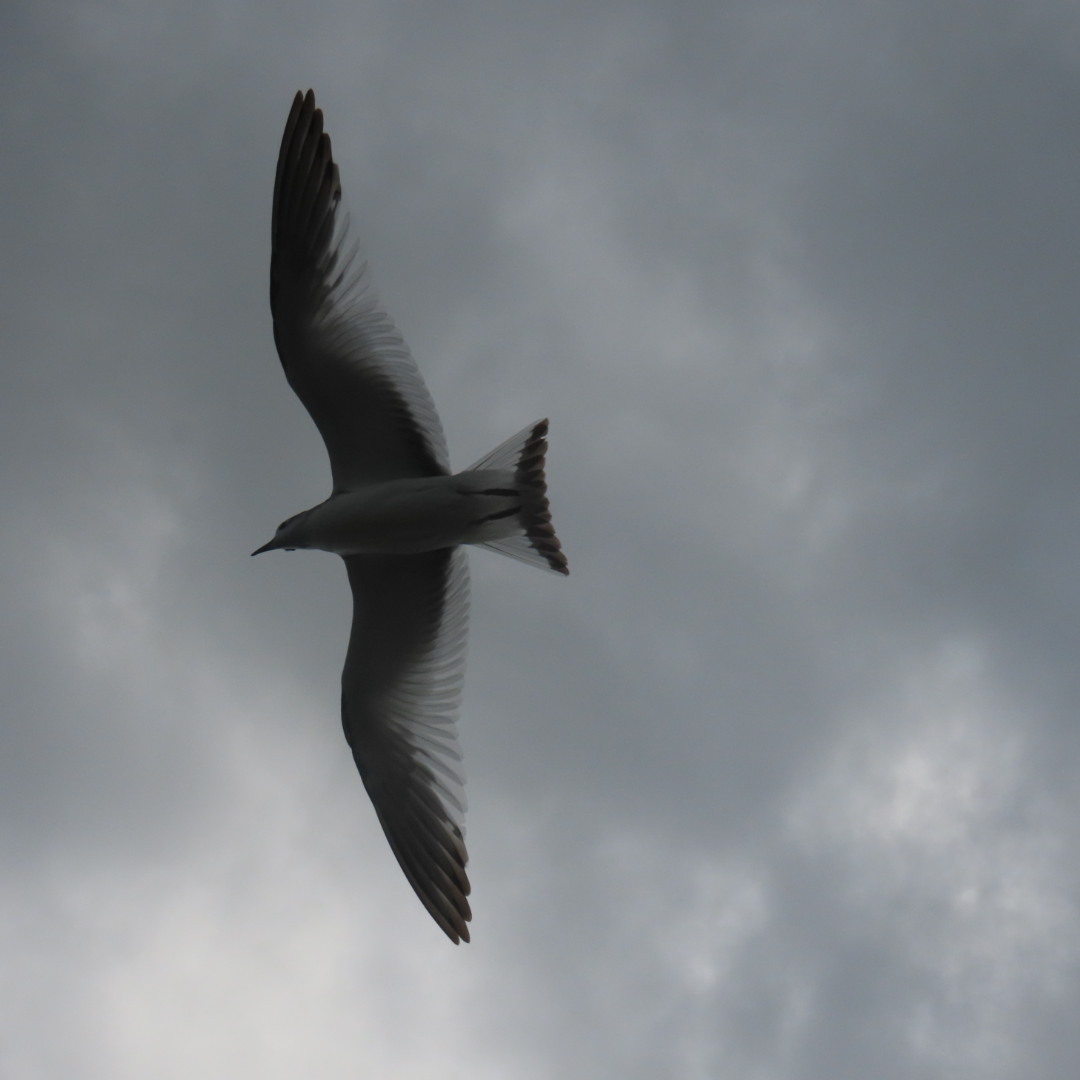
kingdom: Animalia
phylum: Chordata
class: Aves
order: Charadriiformes
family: Laridae
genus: Xema
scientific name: Xema sabini
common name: Sabine's gull
